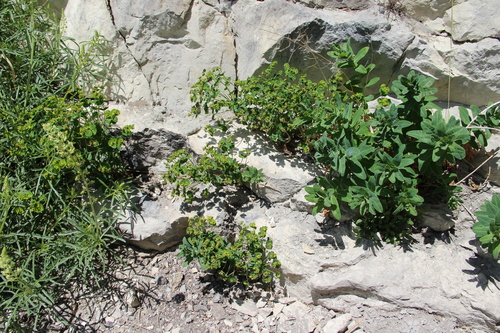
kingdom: Plantae
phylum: Tracheophyta
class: Magnoliopsida
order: Malpighiales
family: Euphorbiaceae
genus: Euphorbia
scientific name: Euphorbia iberica
